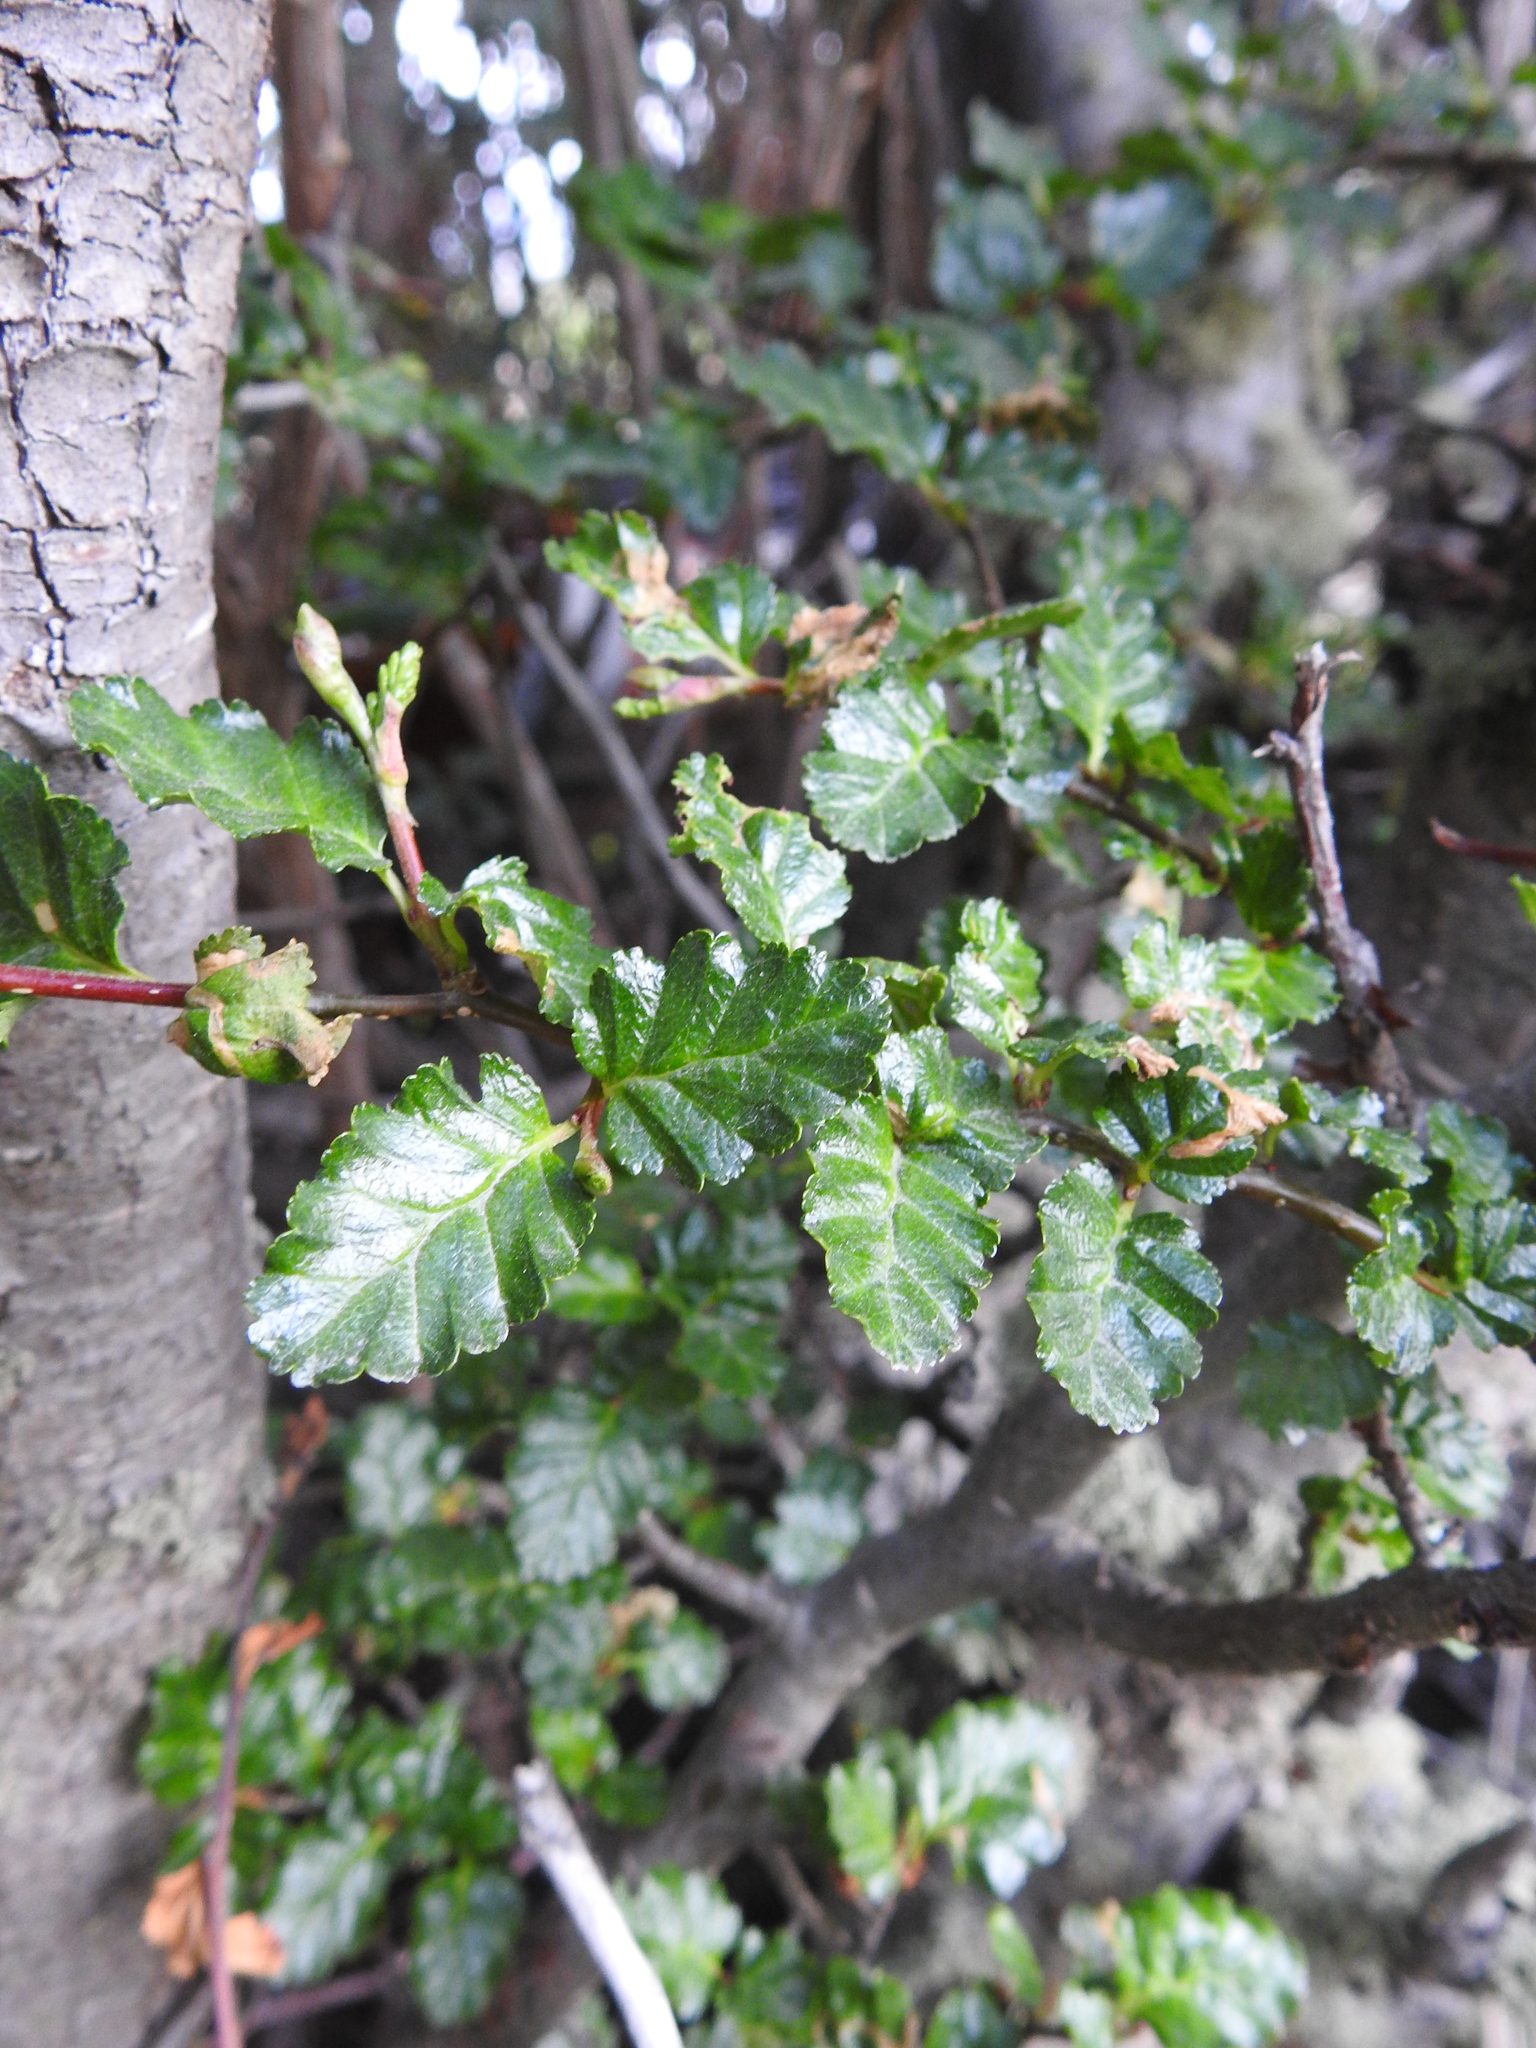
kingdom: Plantae
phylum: Tracheophyta
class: Magnoliopsida
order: Fagales
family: Nothofagaceae
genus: Nothofagus
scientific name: Nothofagus antarctica
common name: Antarctic beech
